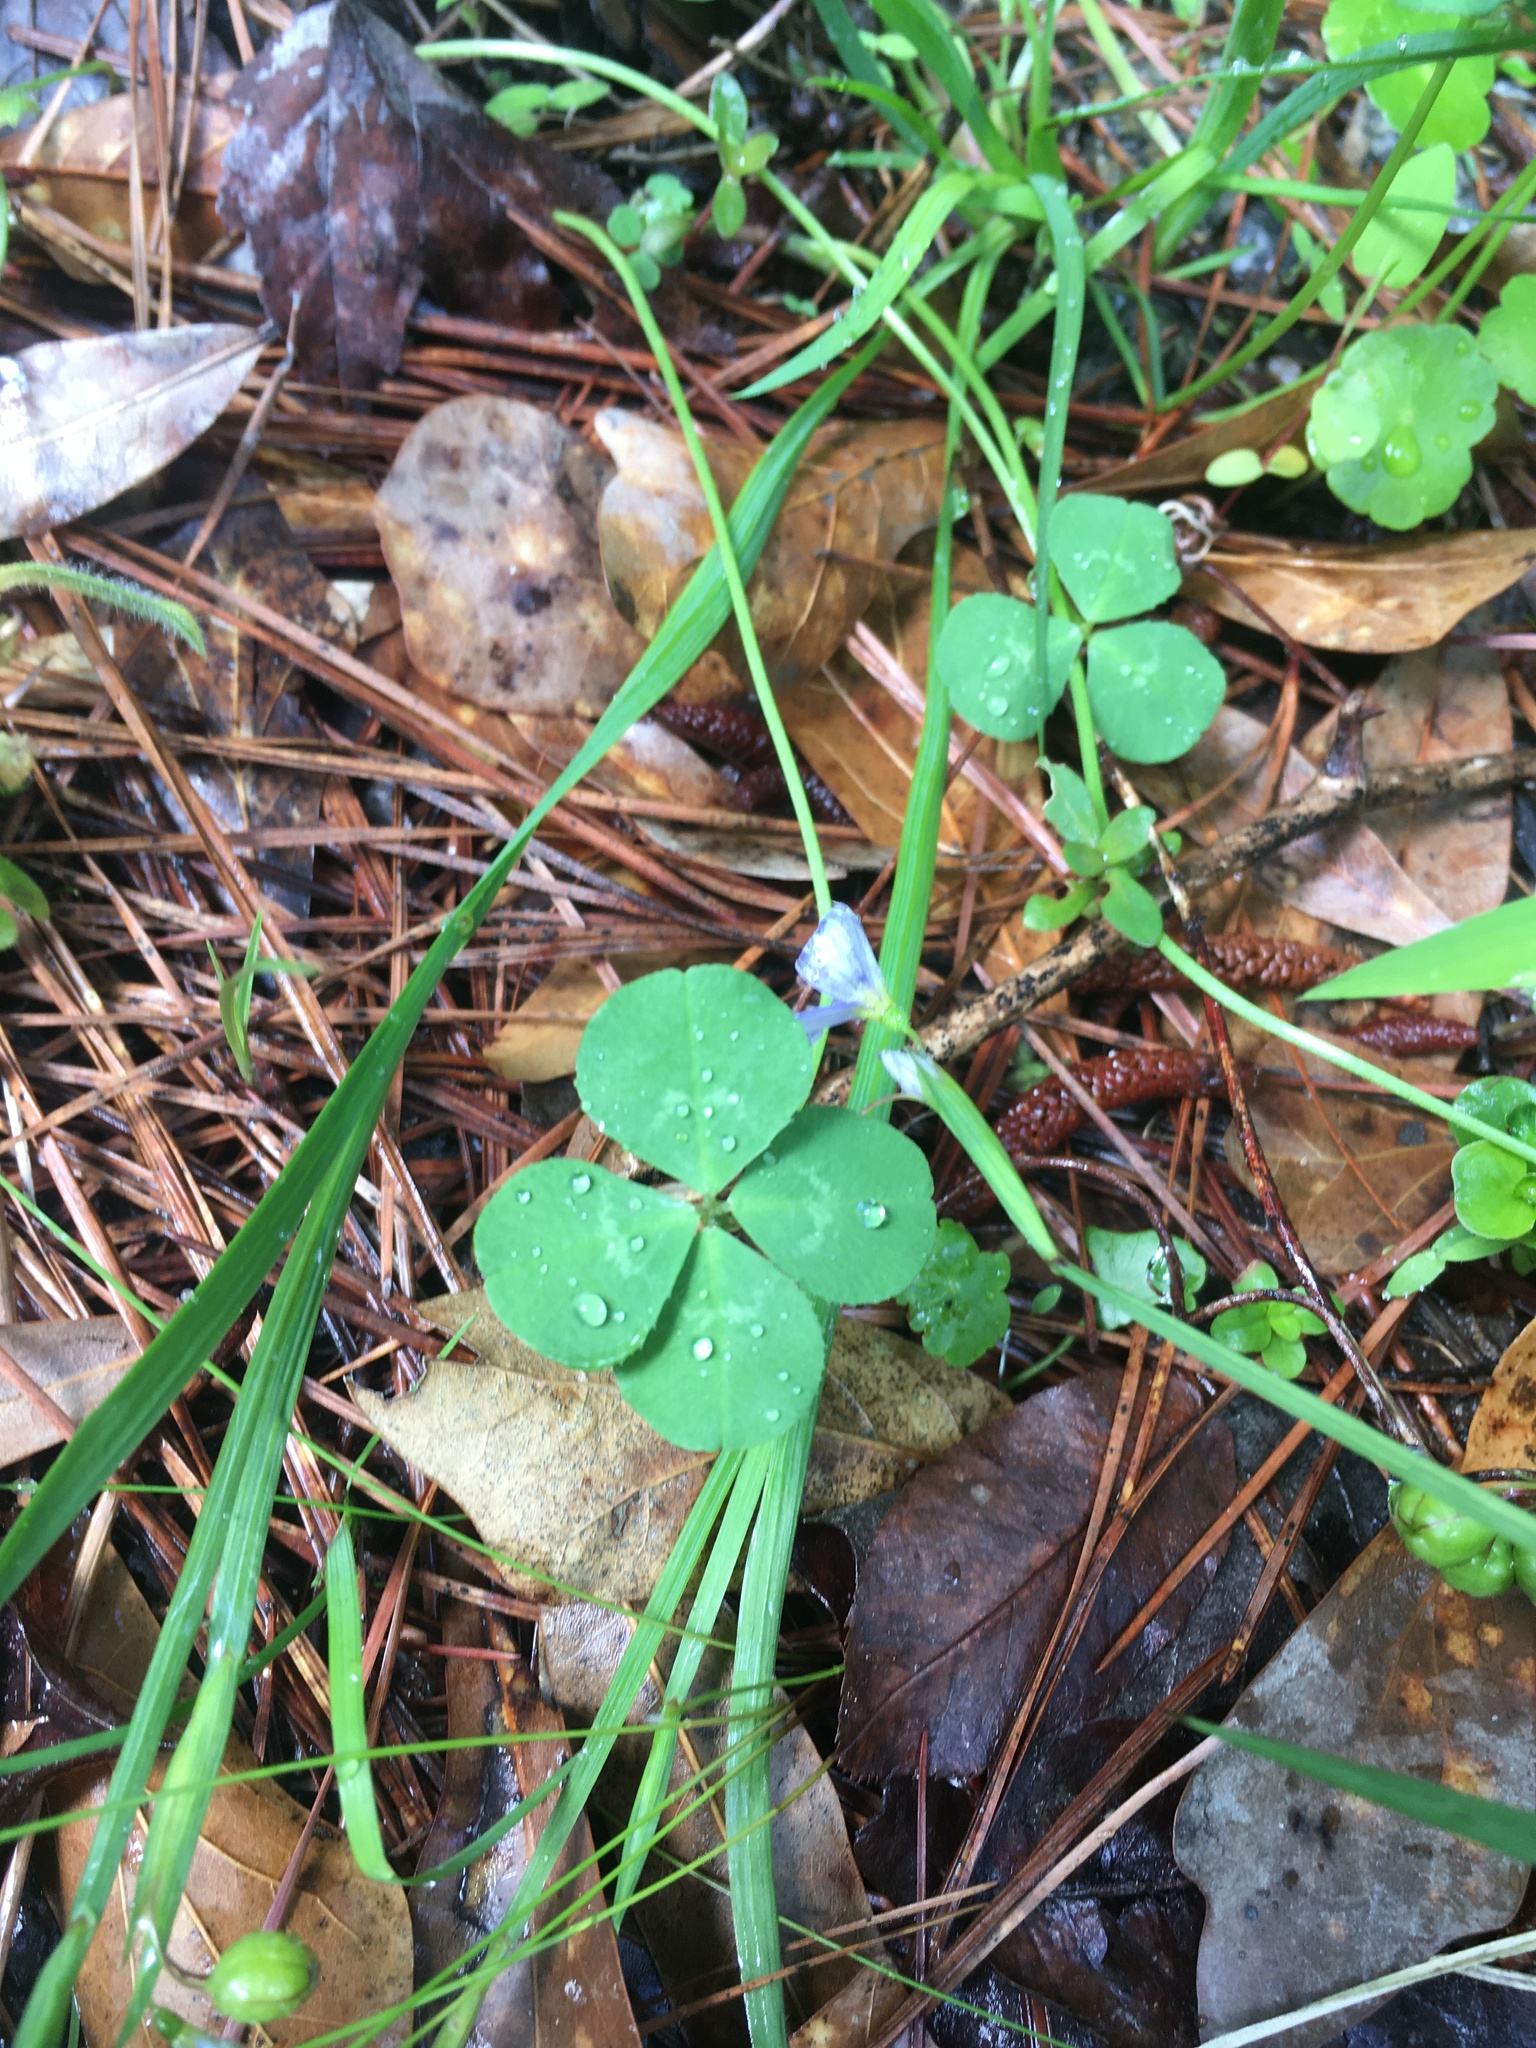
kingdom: Plantae
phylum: Tracheophyta
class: Magnoliopsida
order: Fabales
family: Fabaceae
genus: Trifolium
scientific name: Trifolium repens
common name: White clover
